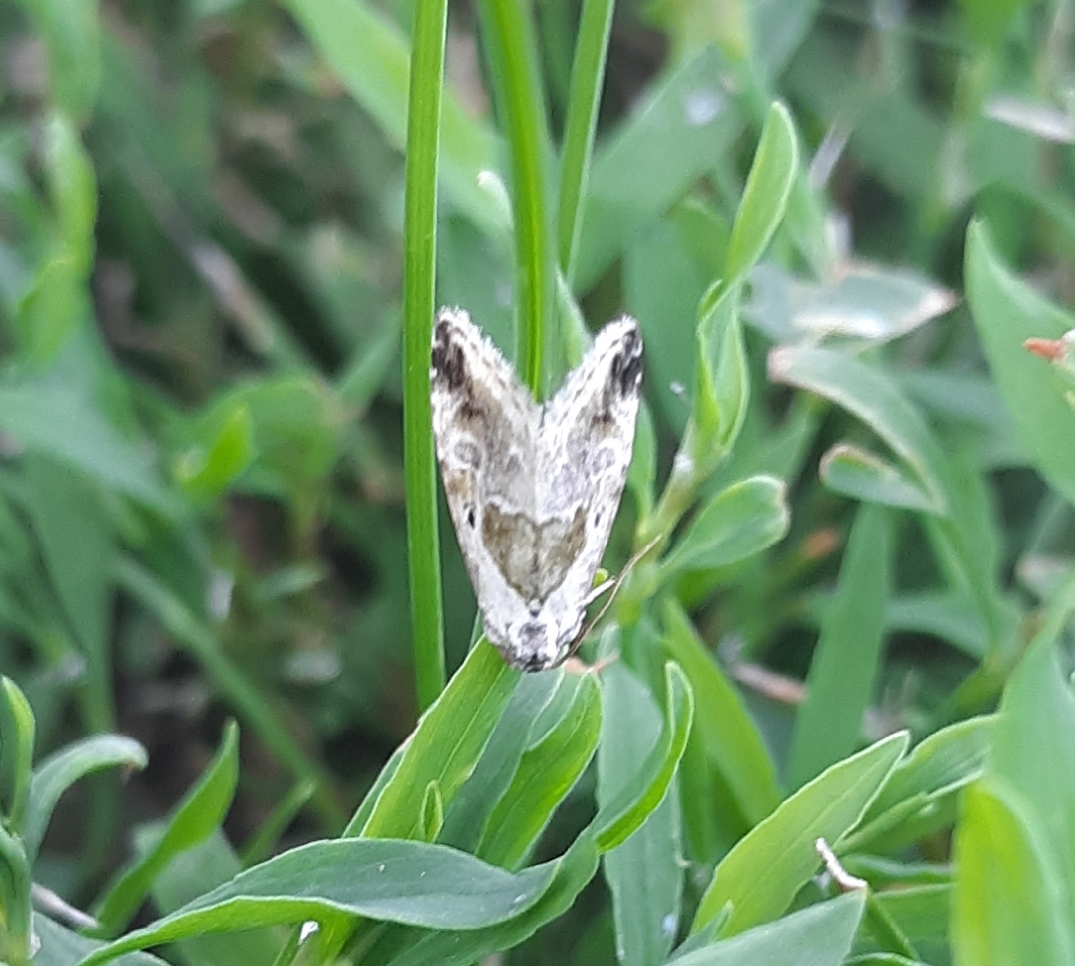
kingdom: Animalia
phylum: Arthropoda
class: Insecta
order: Lepidoptera
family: Noctuidae
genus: Maliattha
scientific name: Maliattha synochitis
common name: Black-dotted glyph
